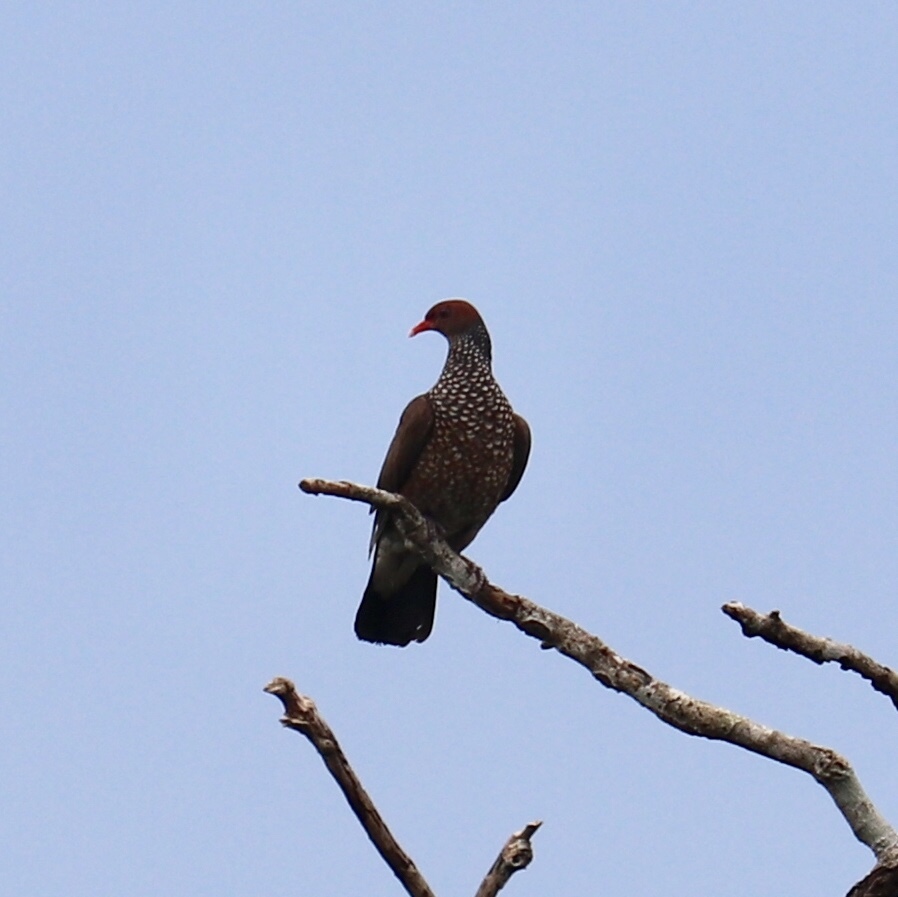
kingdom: Animalia
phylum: Chordata
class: Aves
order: Columbiformes
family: Columbidae
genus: Patagioenas
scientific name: Patagioenas speciosa
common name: Scaled pigeon
